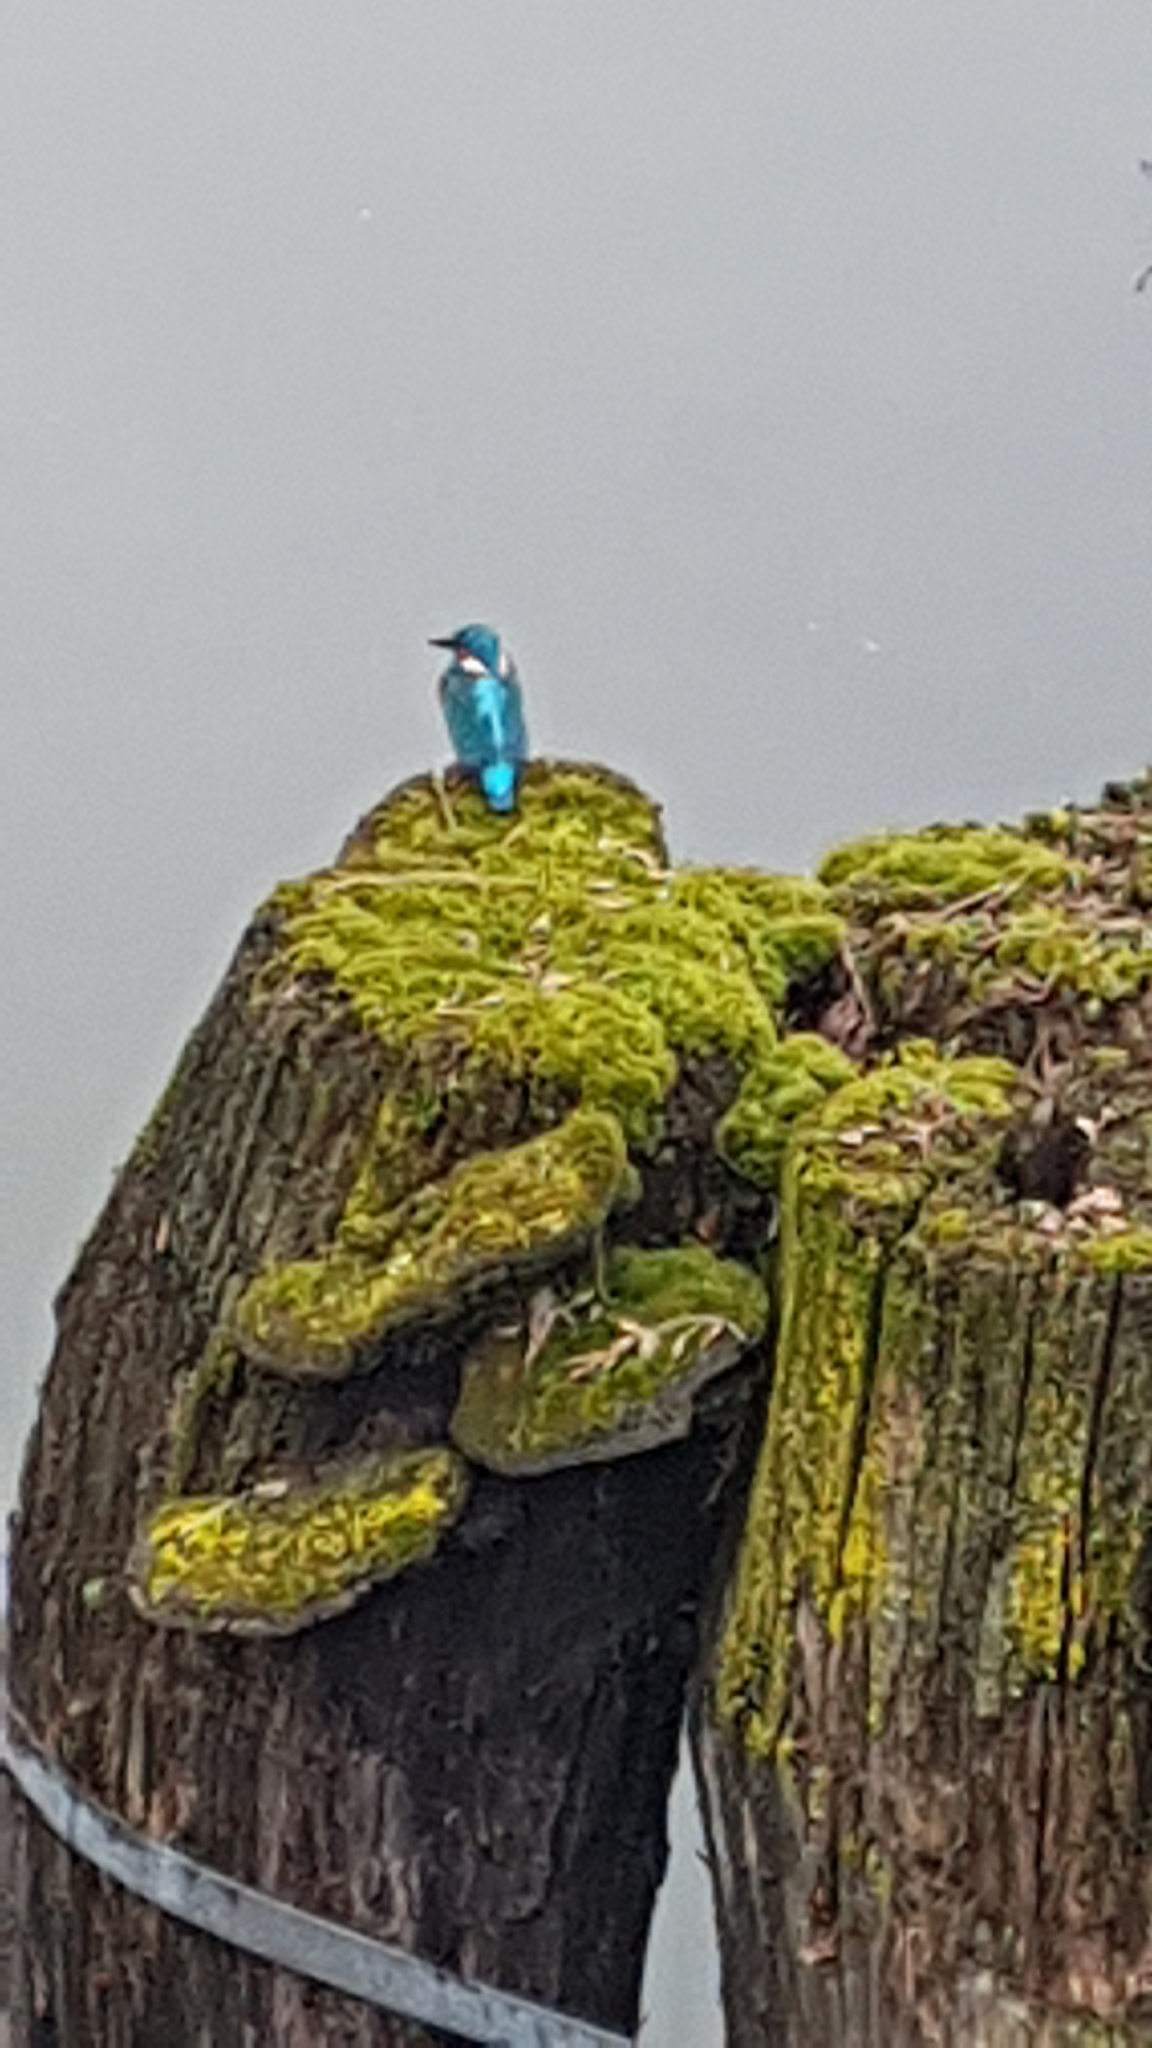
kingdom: Animalia
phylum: Chordata
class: Aves
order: Coraciiformes
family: Alcedinidae
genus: Alcedo
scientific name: Alcedo atthis
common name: Common kingfisher
